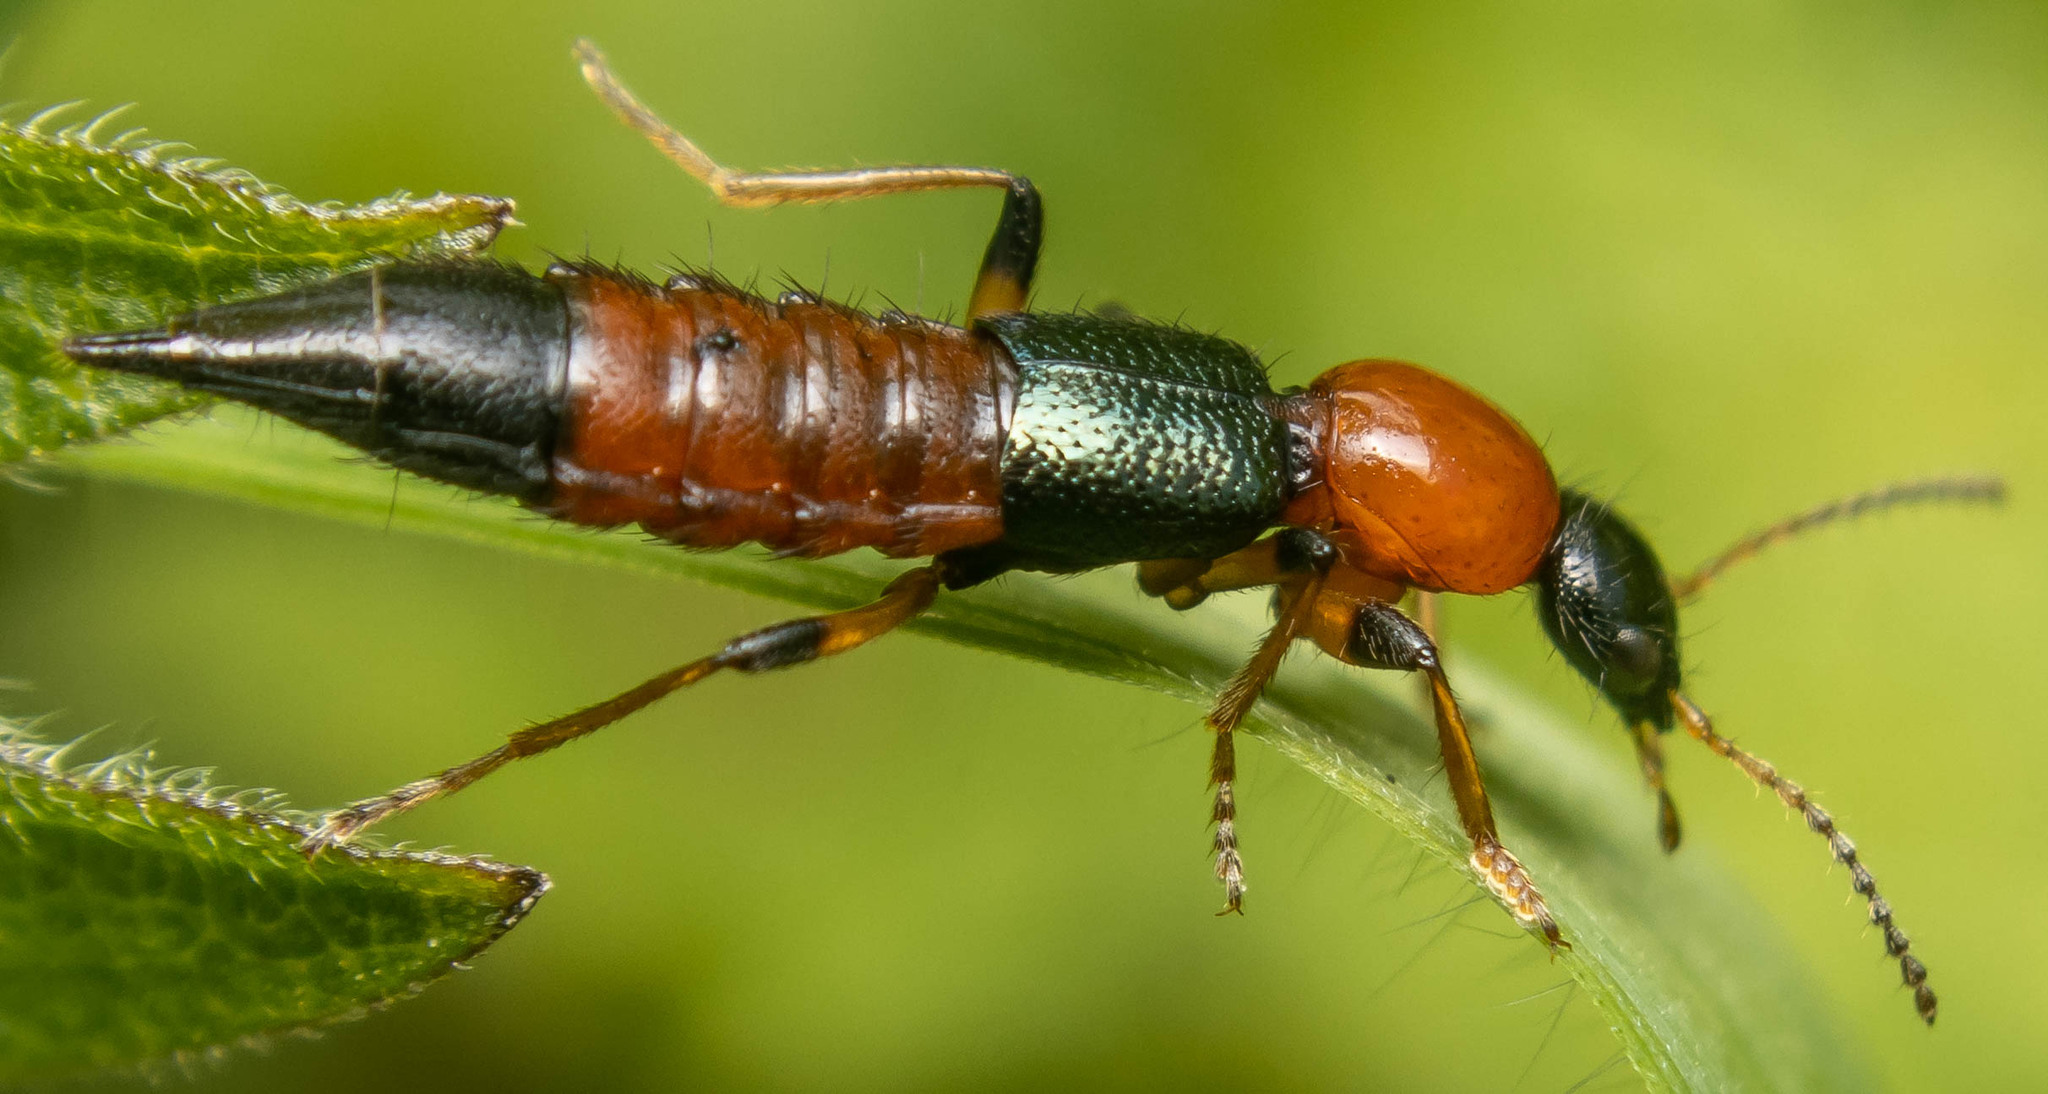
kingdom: Animalia
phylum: Arthropoda
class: Insecta
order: Coleoptera
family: Staphylinidae
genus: Paederus
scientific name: Paederus littoralis
